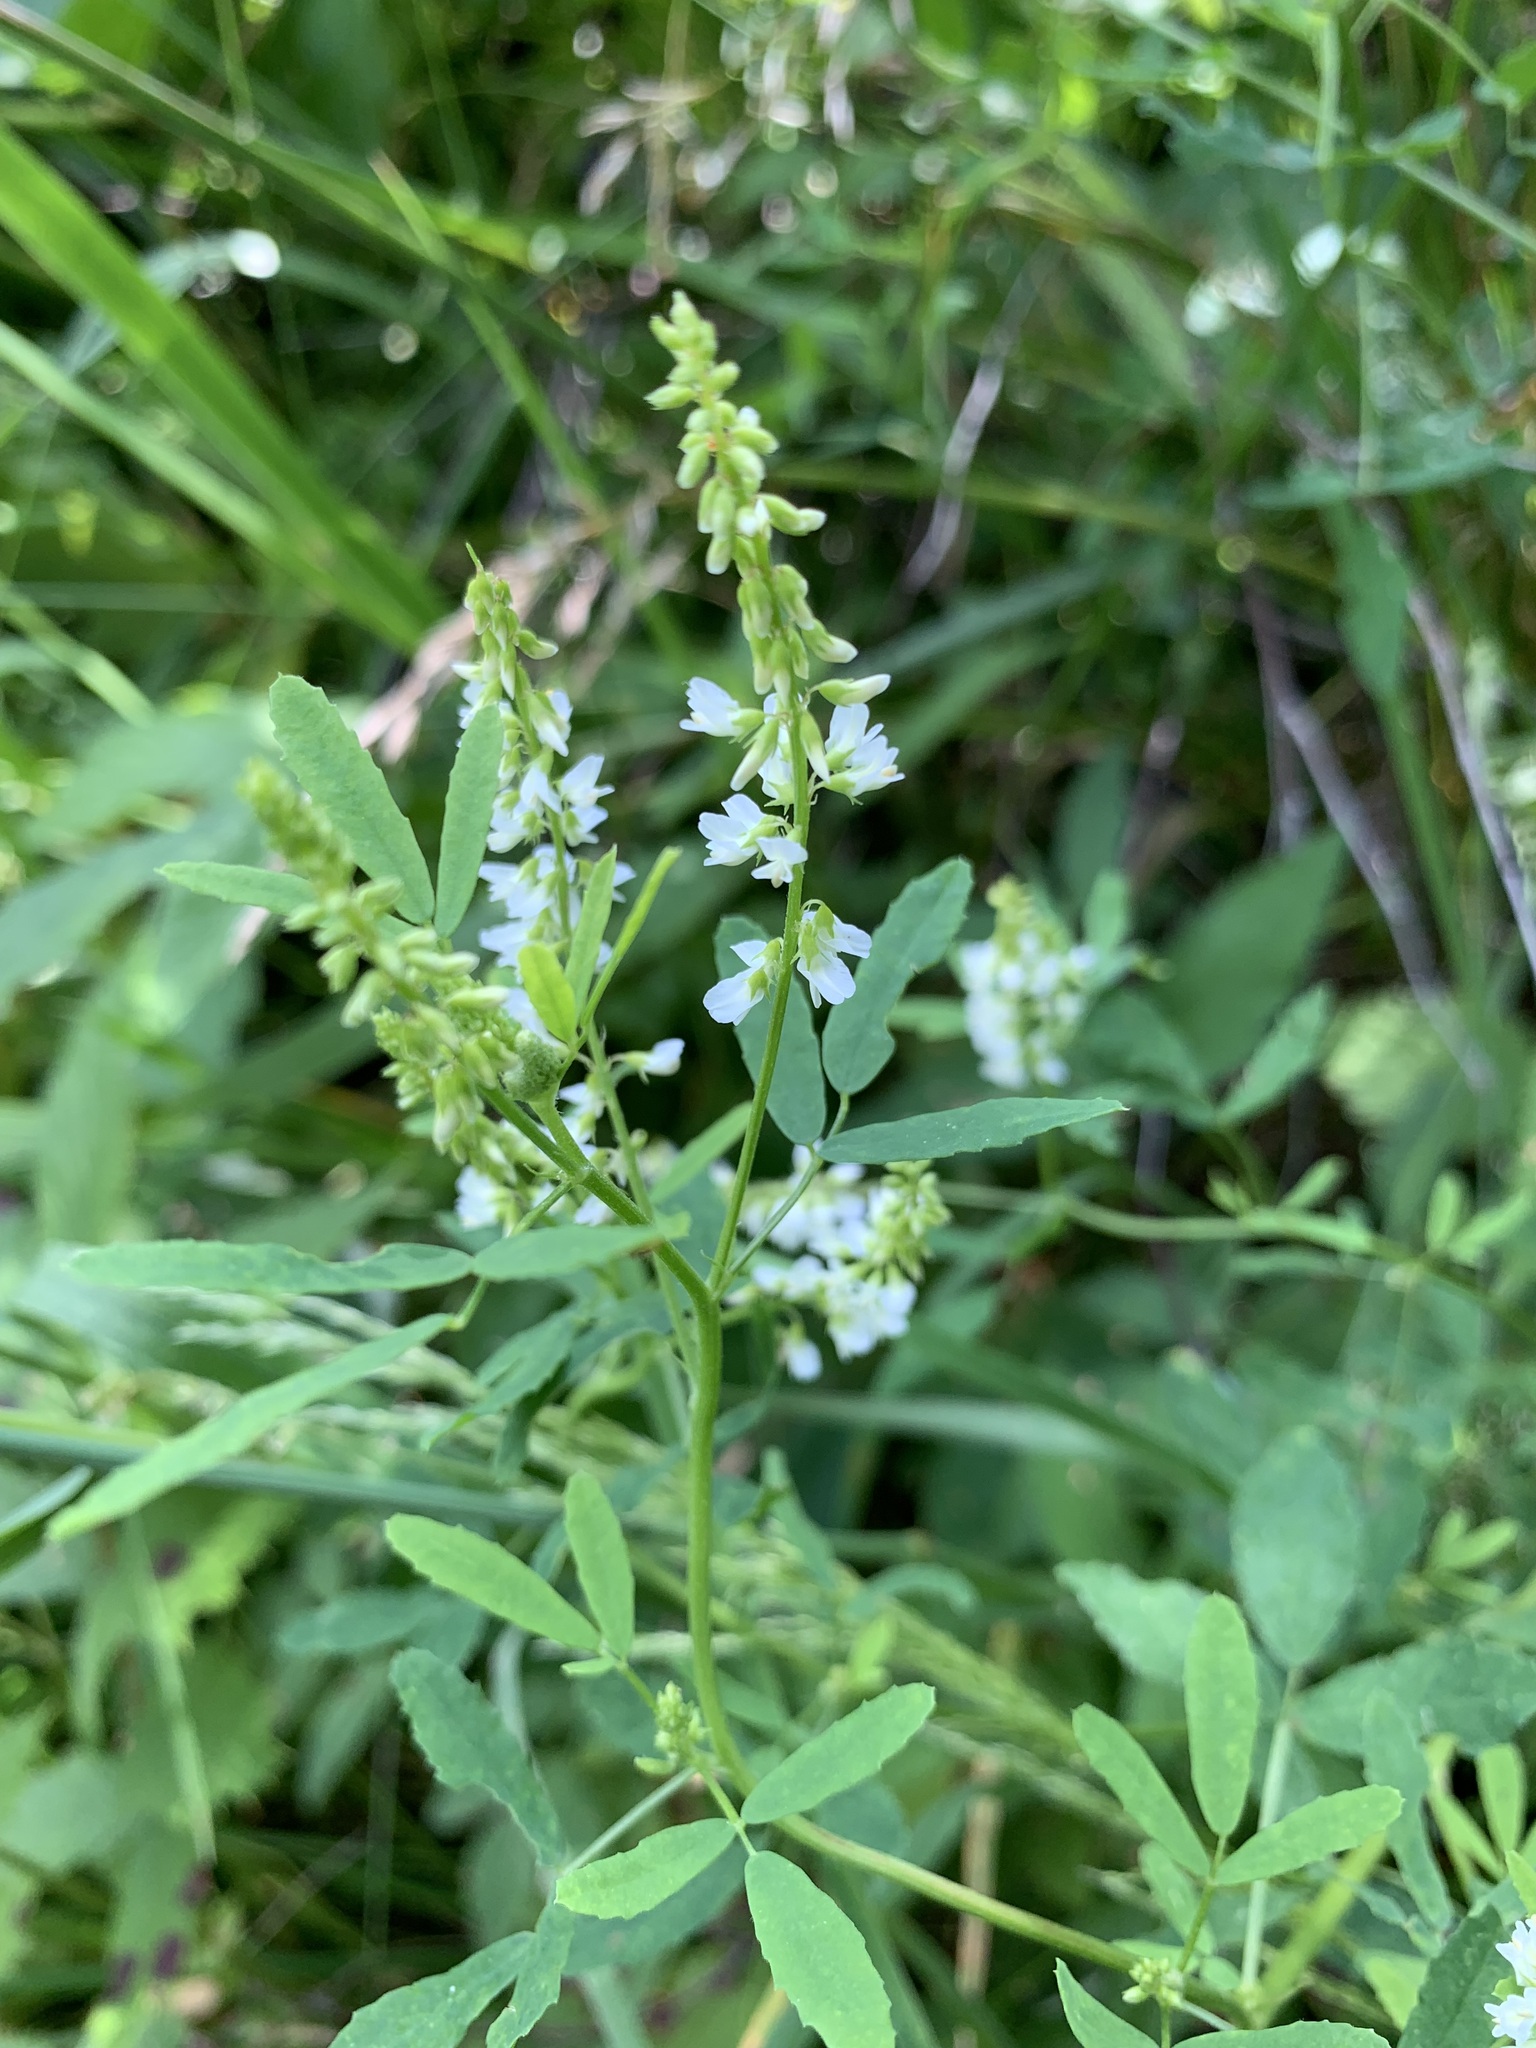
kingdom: Plantae
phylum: Tracheophyta
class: Magnoliopsida
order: Fabales
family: Fabaceae
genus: Melilotus
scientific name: Melilotus albus
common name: White melilot
